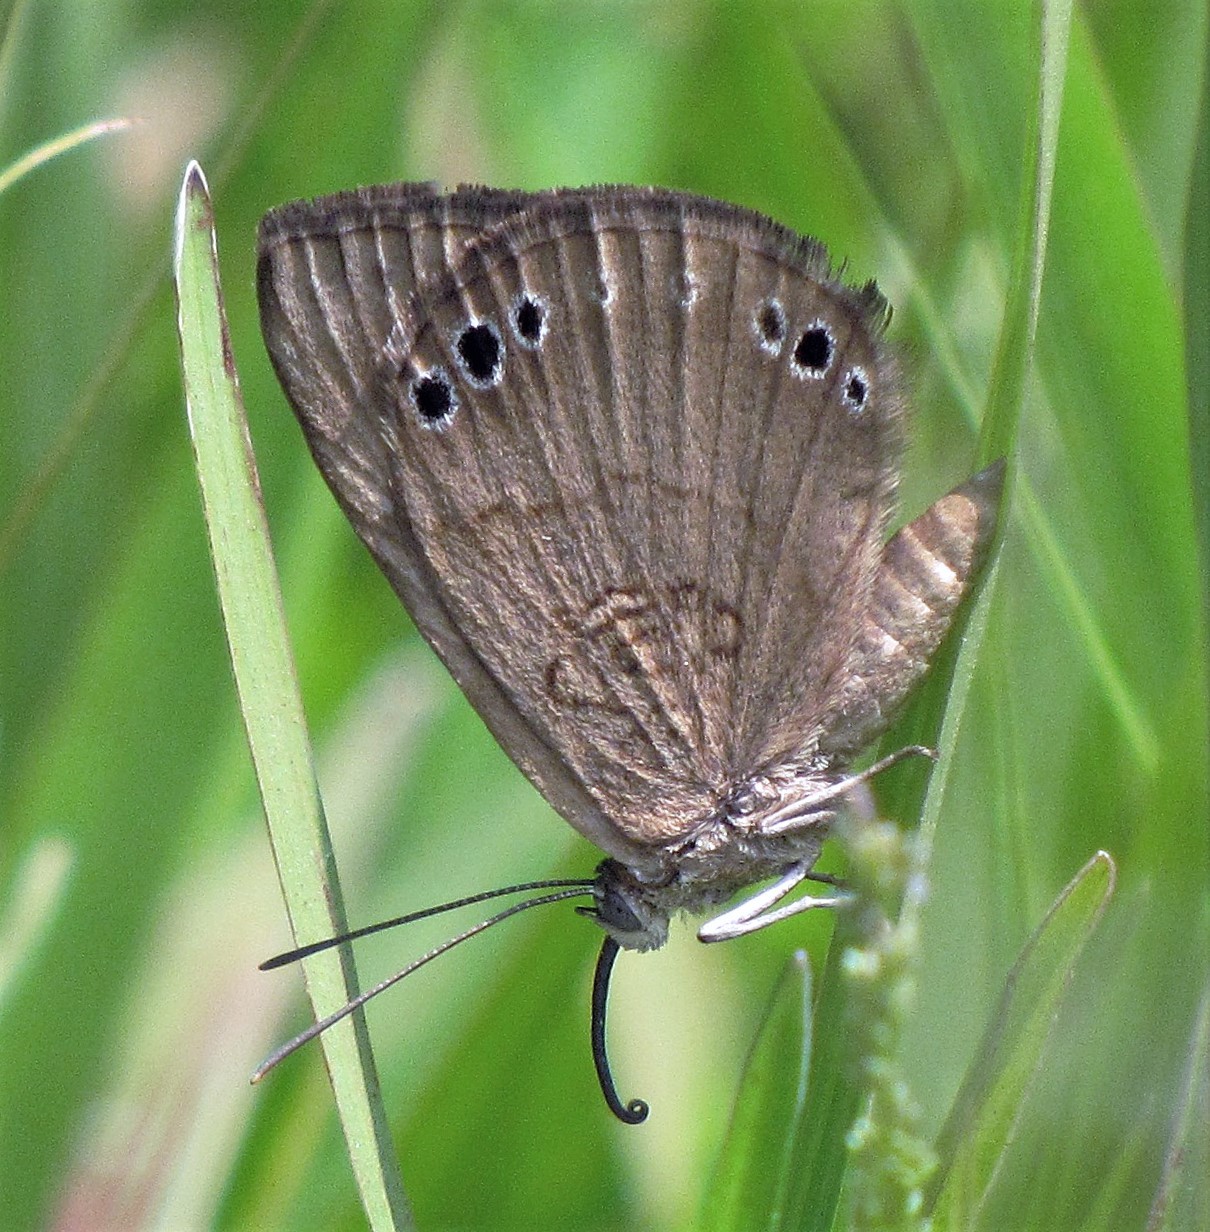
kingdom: Animalia
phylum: Arthropoda
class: Insecta
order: Lepidoptera
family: Lycaenidae
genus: Aricoris
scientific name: Aricoris tutana
